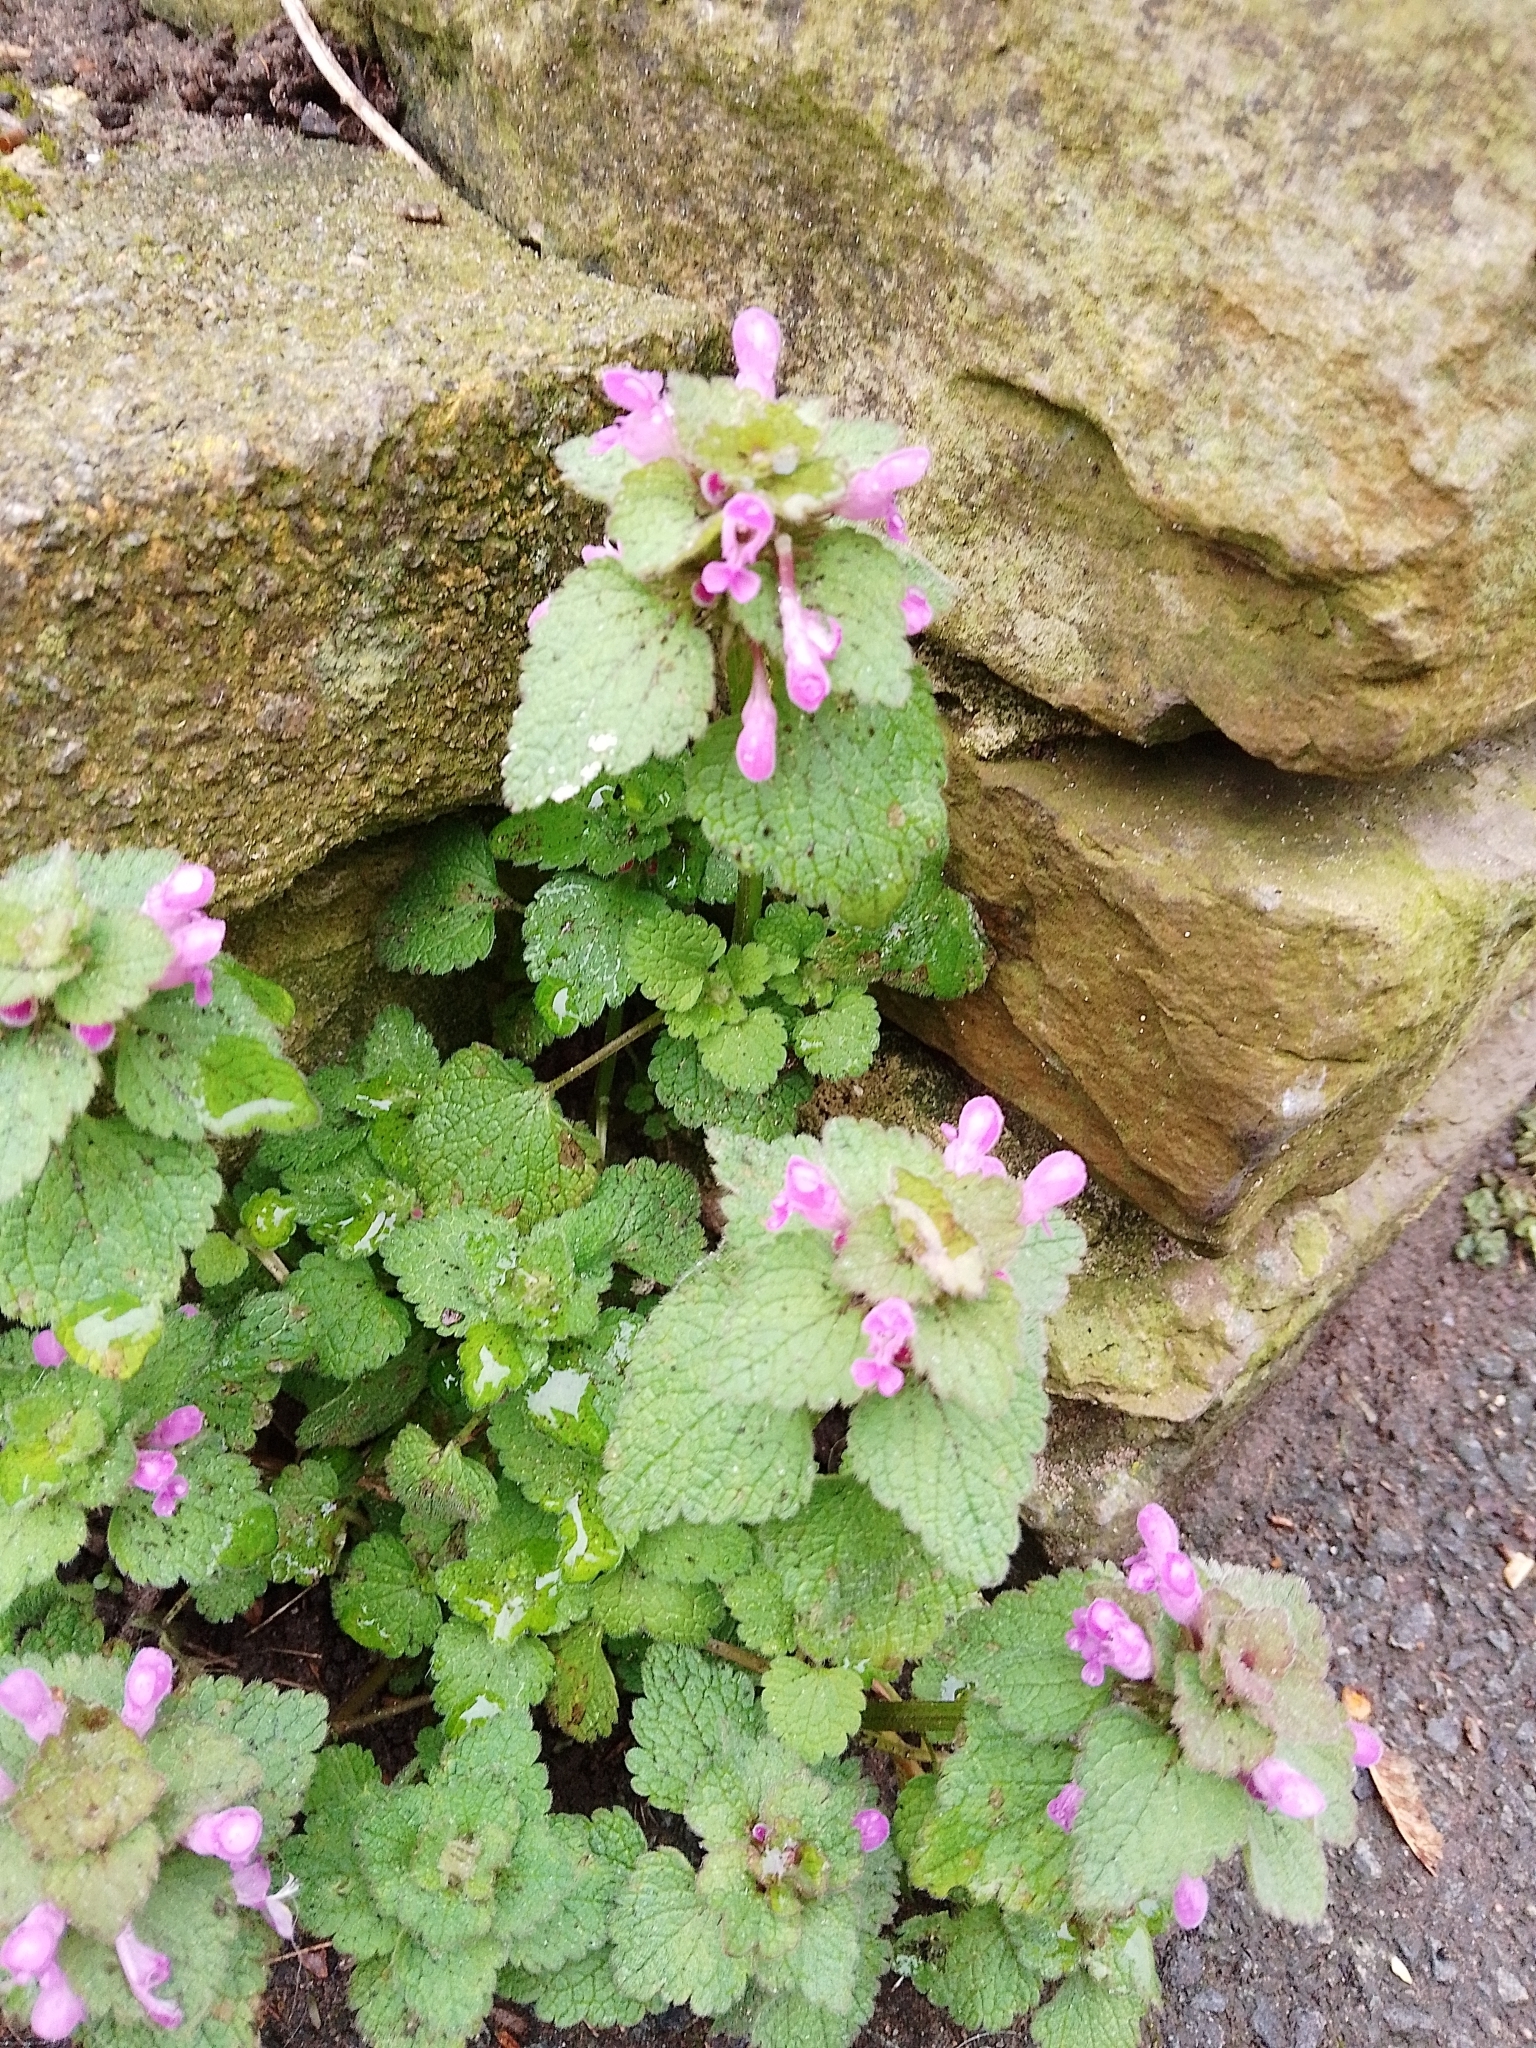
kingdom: Plantae
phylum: Tracheophyta
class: Magnoliopsida
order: Lamiales
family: Lamiaceae
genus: Lamium
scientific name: Lamium purpureum
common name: Red dead-nettle
